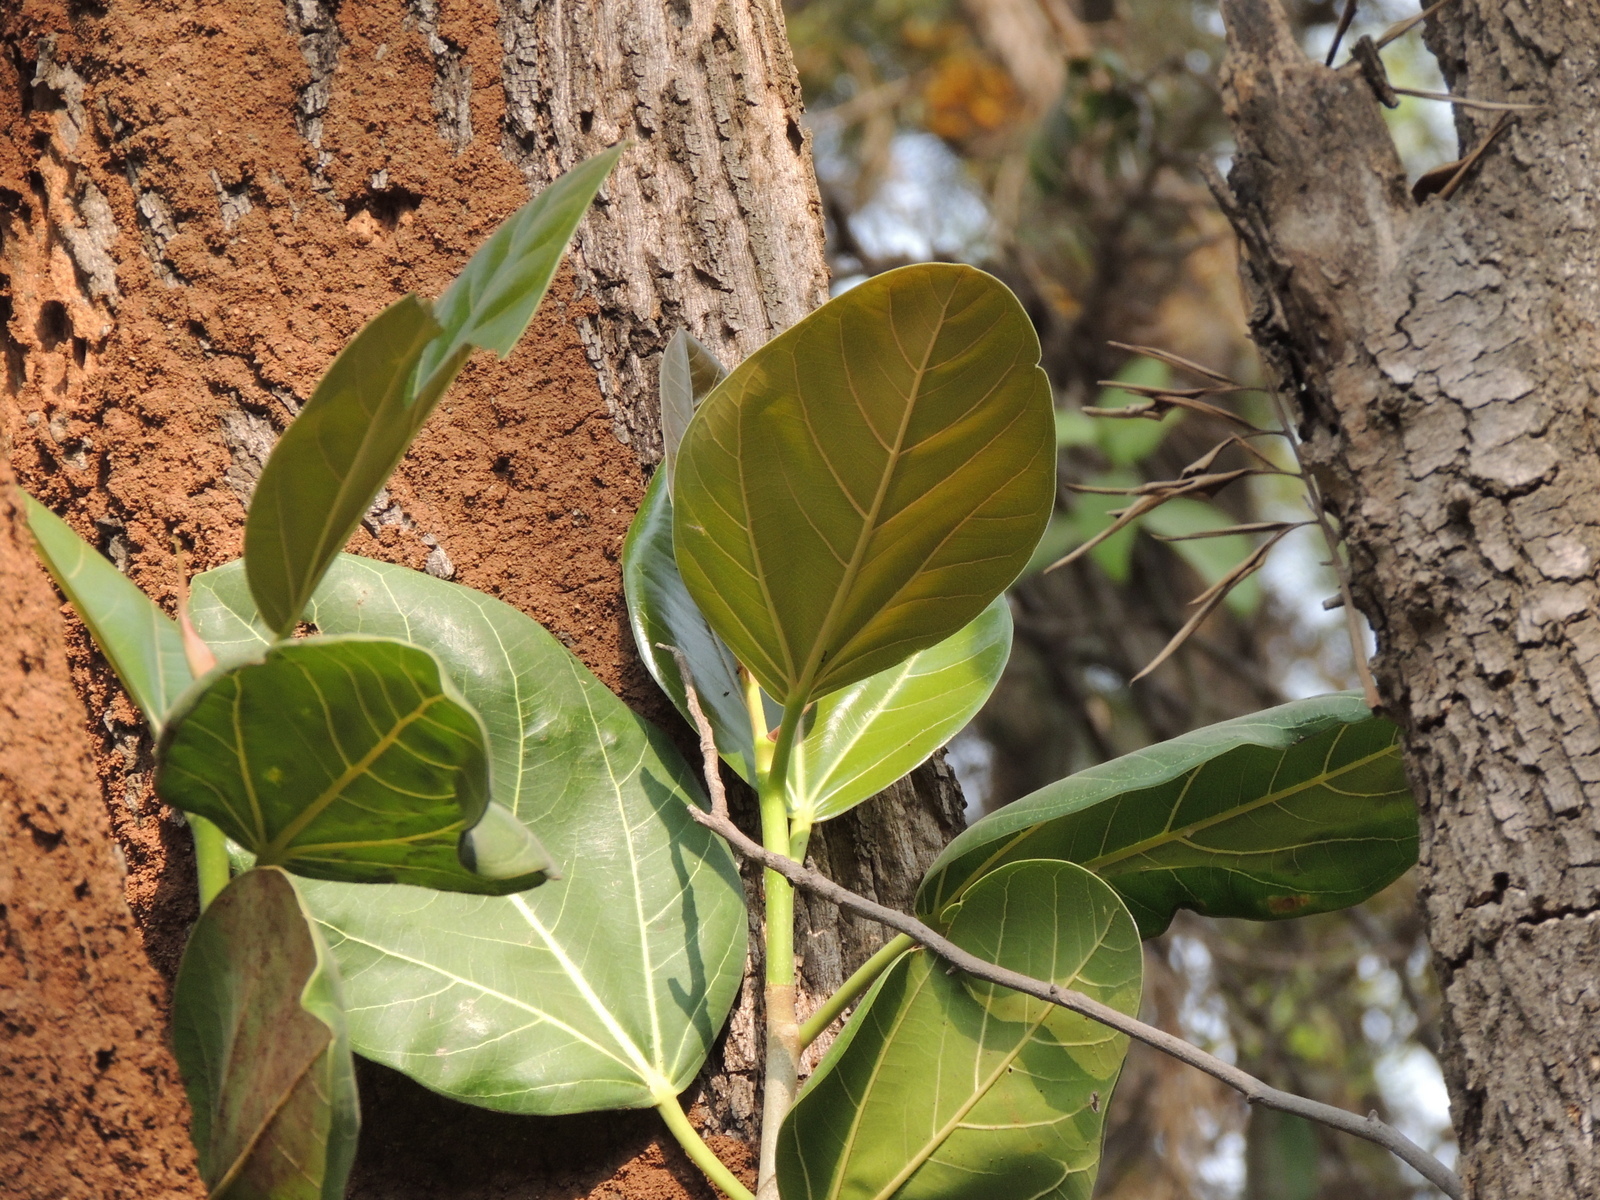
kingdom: Plantae
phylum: Tracheophyta
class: Magnoliopsida
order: Rosales
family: Moraceae
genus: Ficus
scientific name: Ficus benghalensis
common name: Indian banyan
